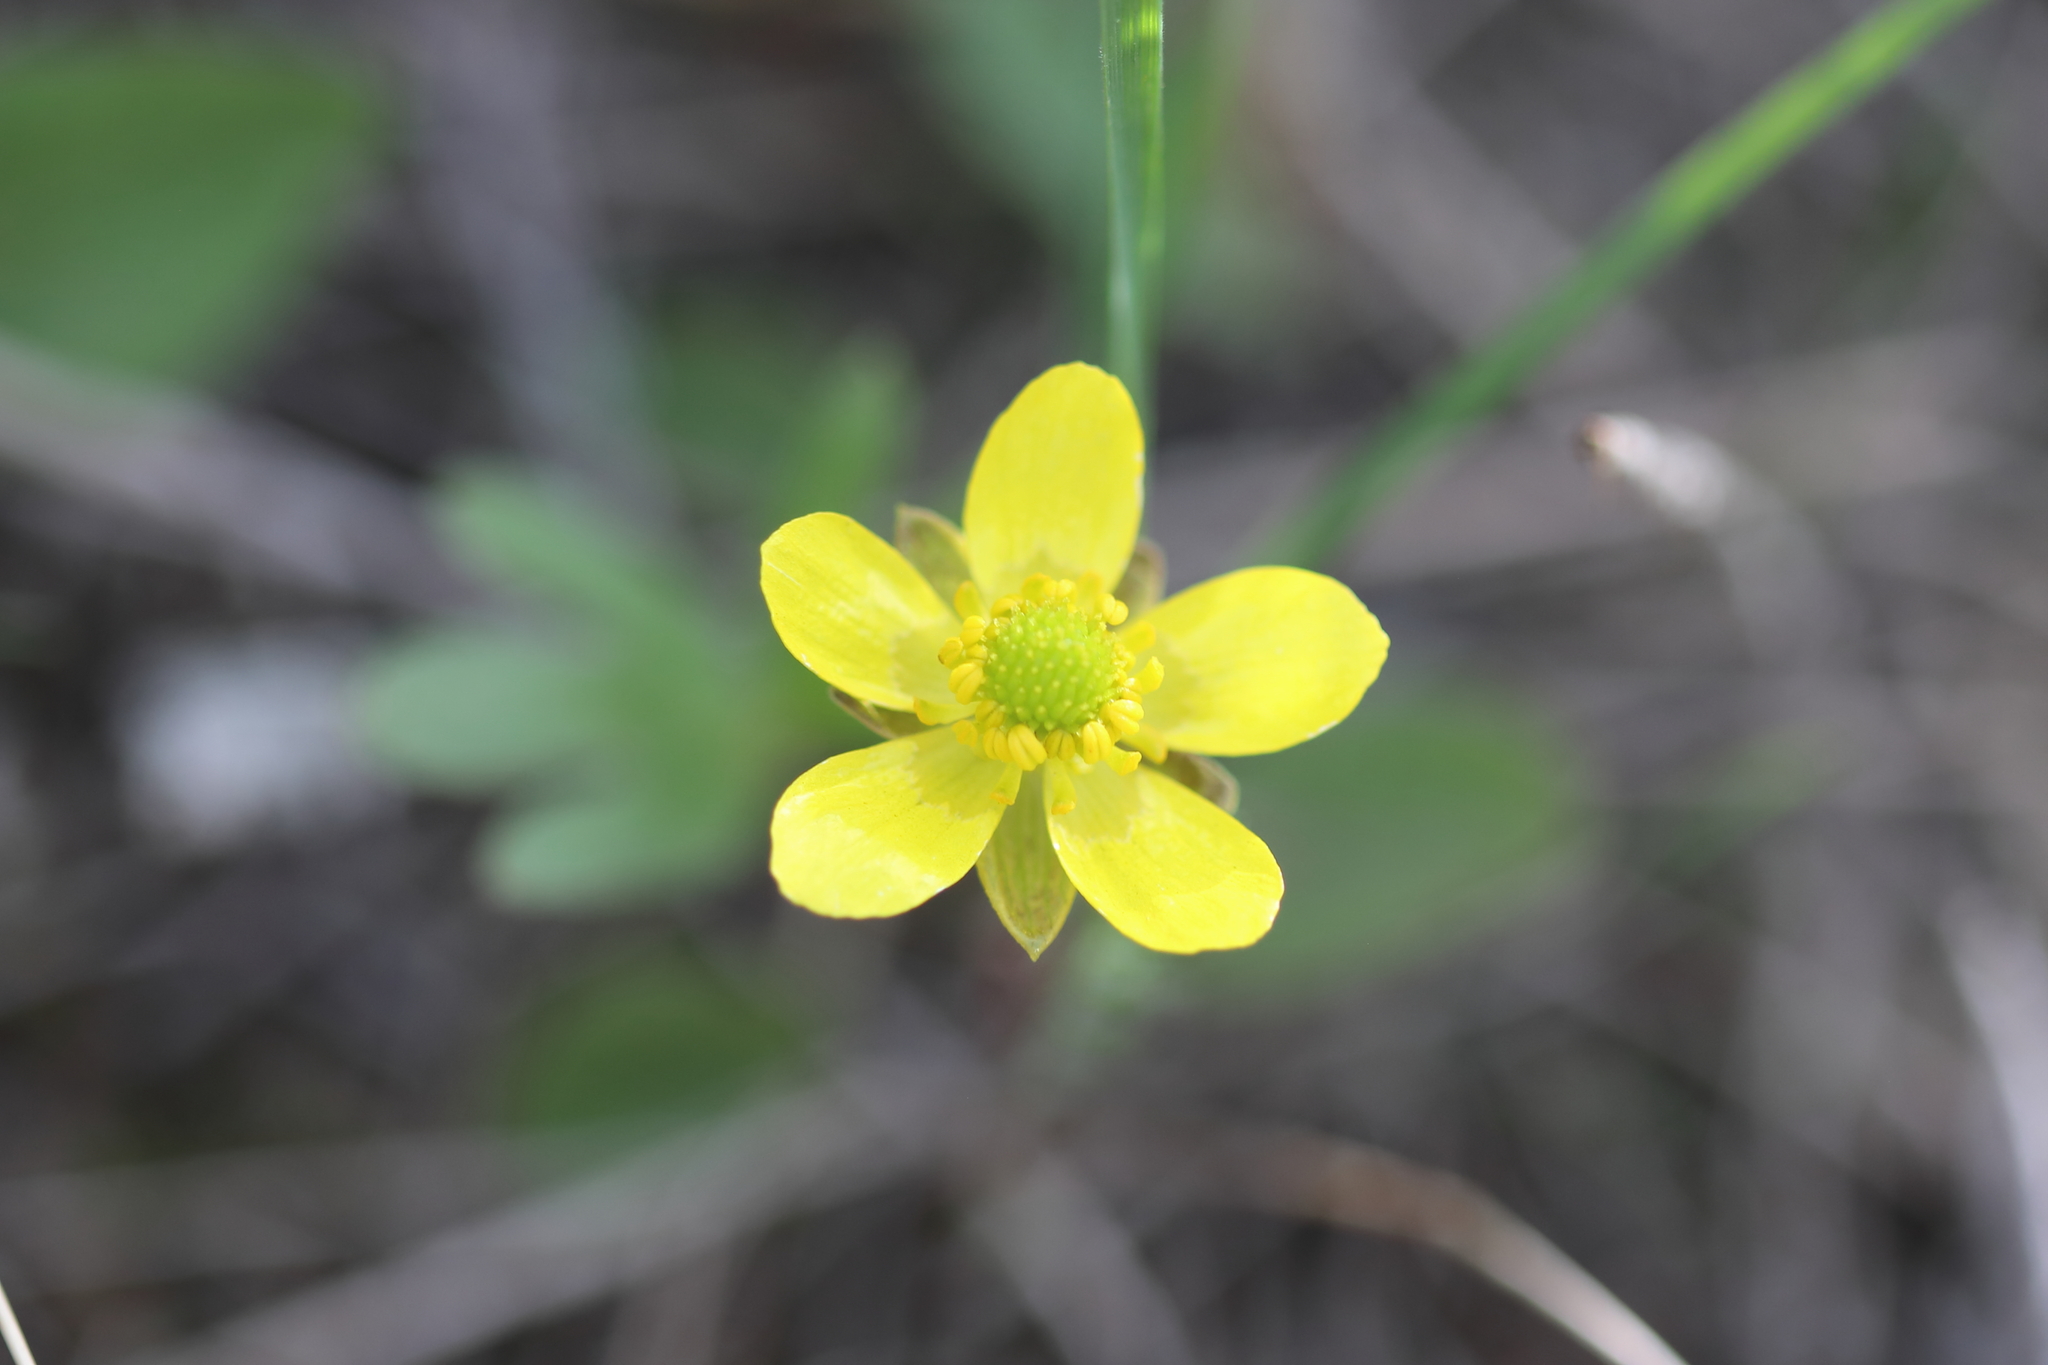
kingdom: Plantae
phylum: Tracheophyta
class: Magnoliopsida
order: Ranunculales
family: Ranunculaceae
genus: Ranunculus
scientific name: Ranunculus glaberrimus
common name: Sagebrush buttercup
